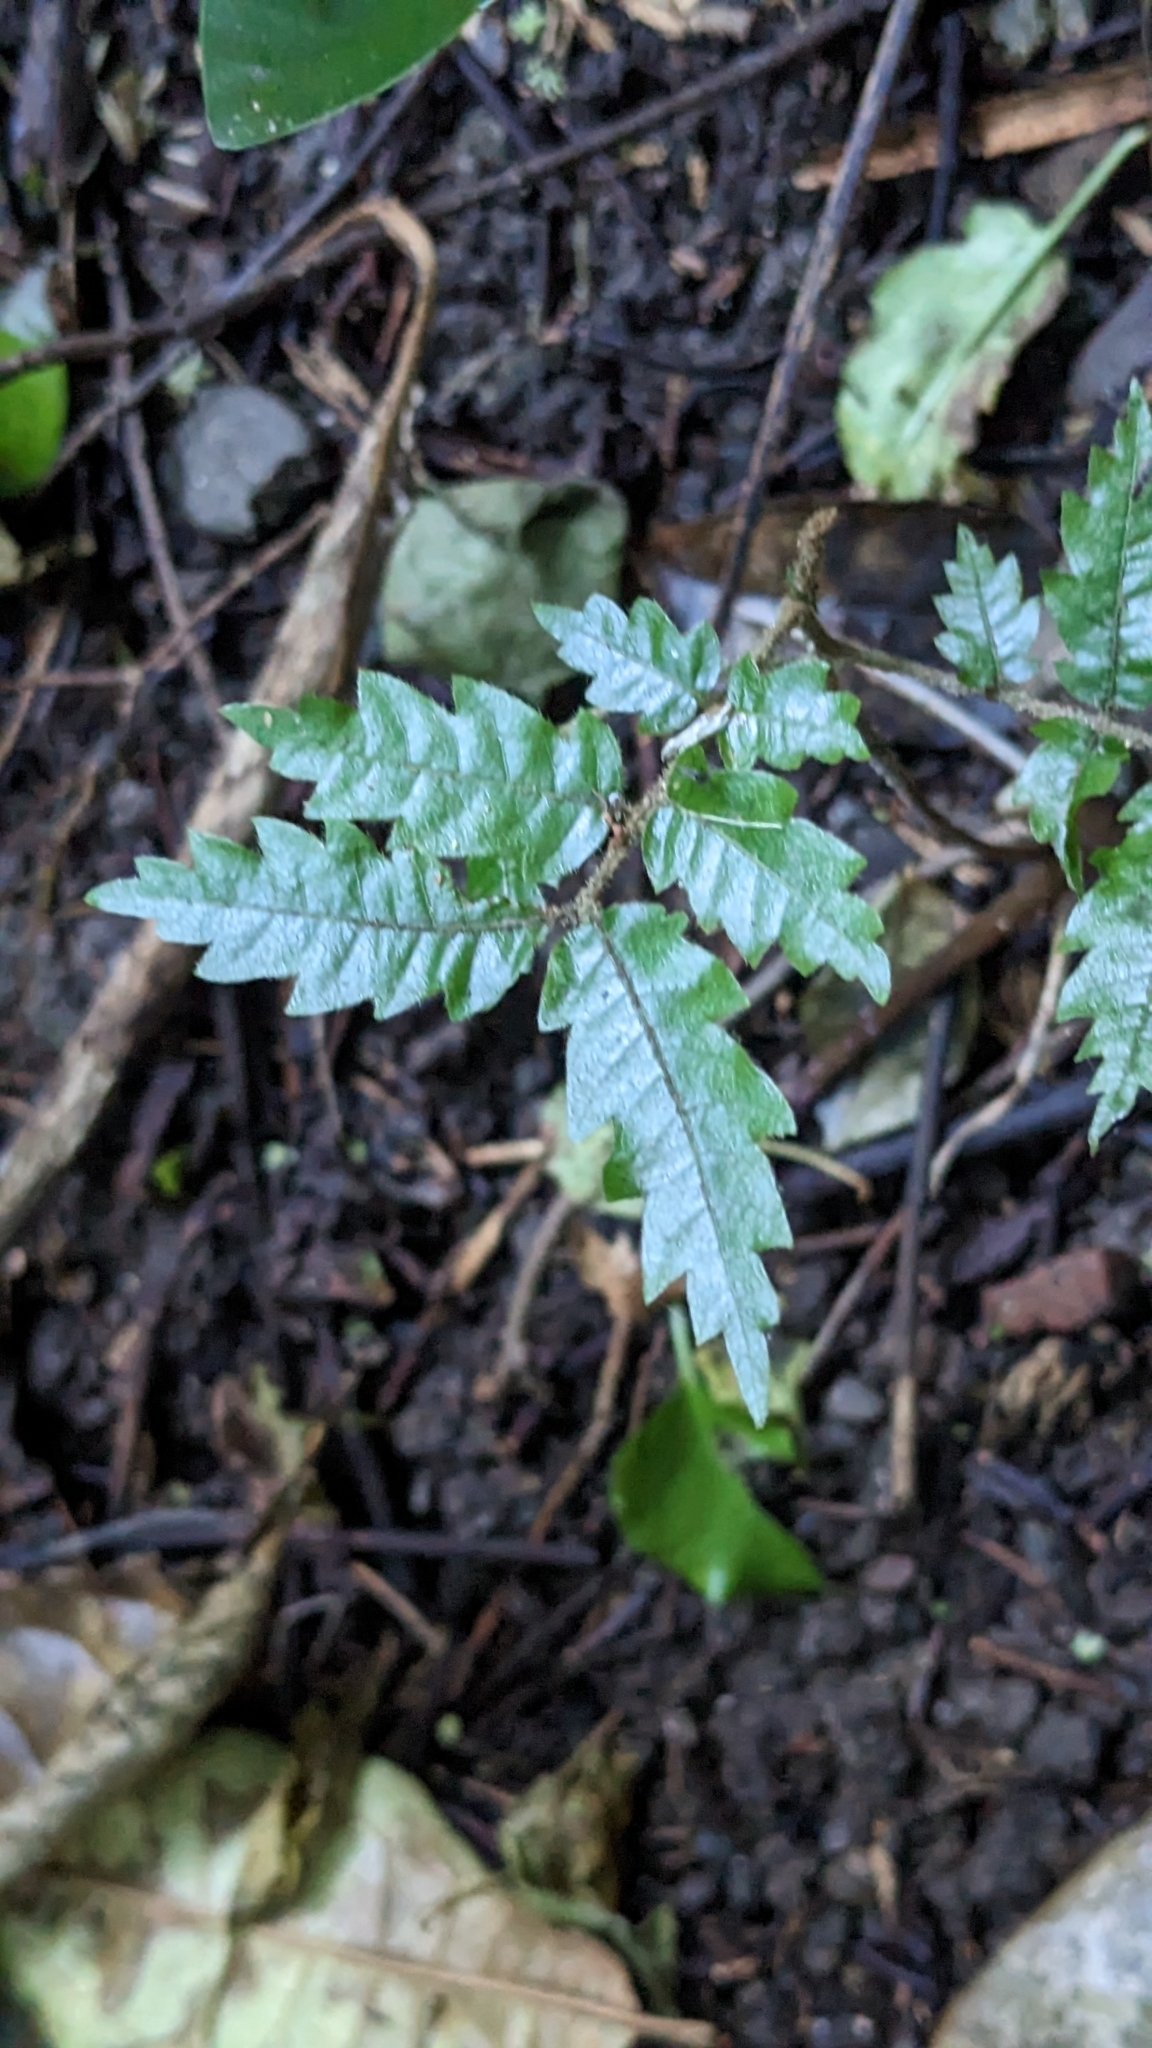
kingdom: Plantae
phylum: Tracheophyta
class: Magnoliopsida
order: Sapindales
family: Sapindaceae
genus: Alectryon
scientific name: Alectryon excelsus
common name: Three kings titoki
